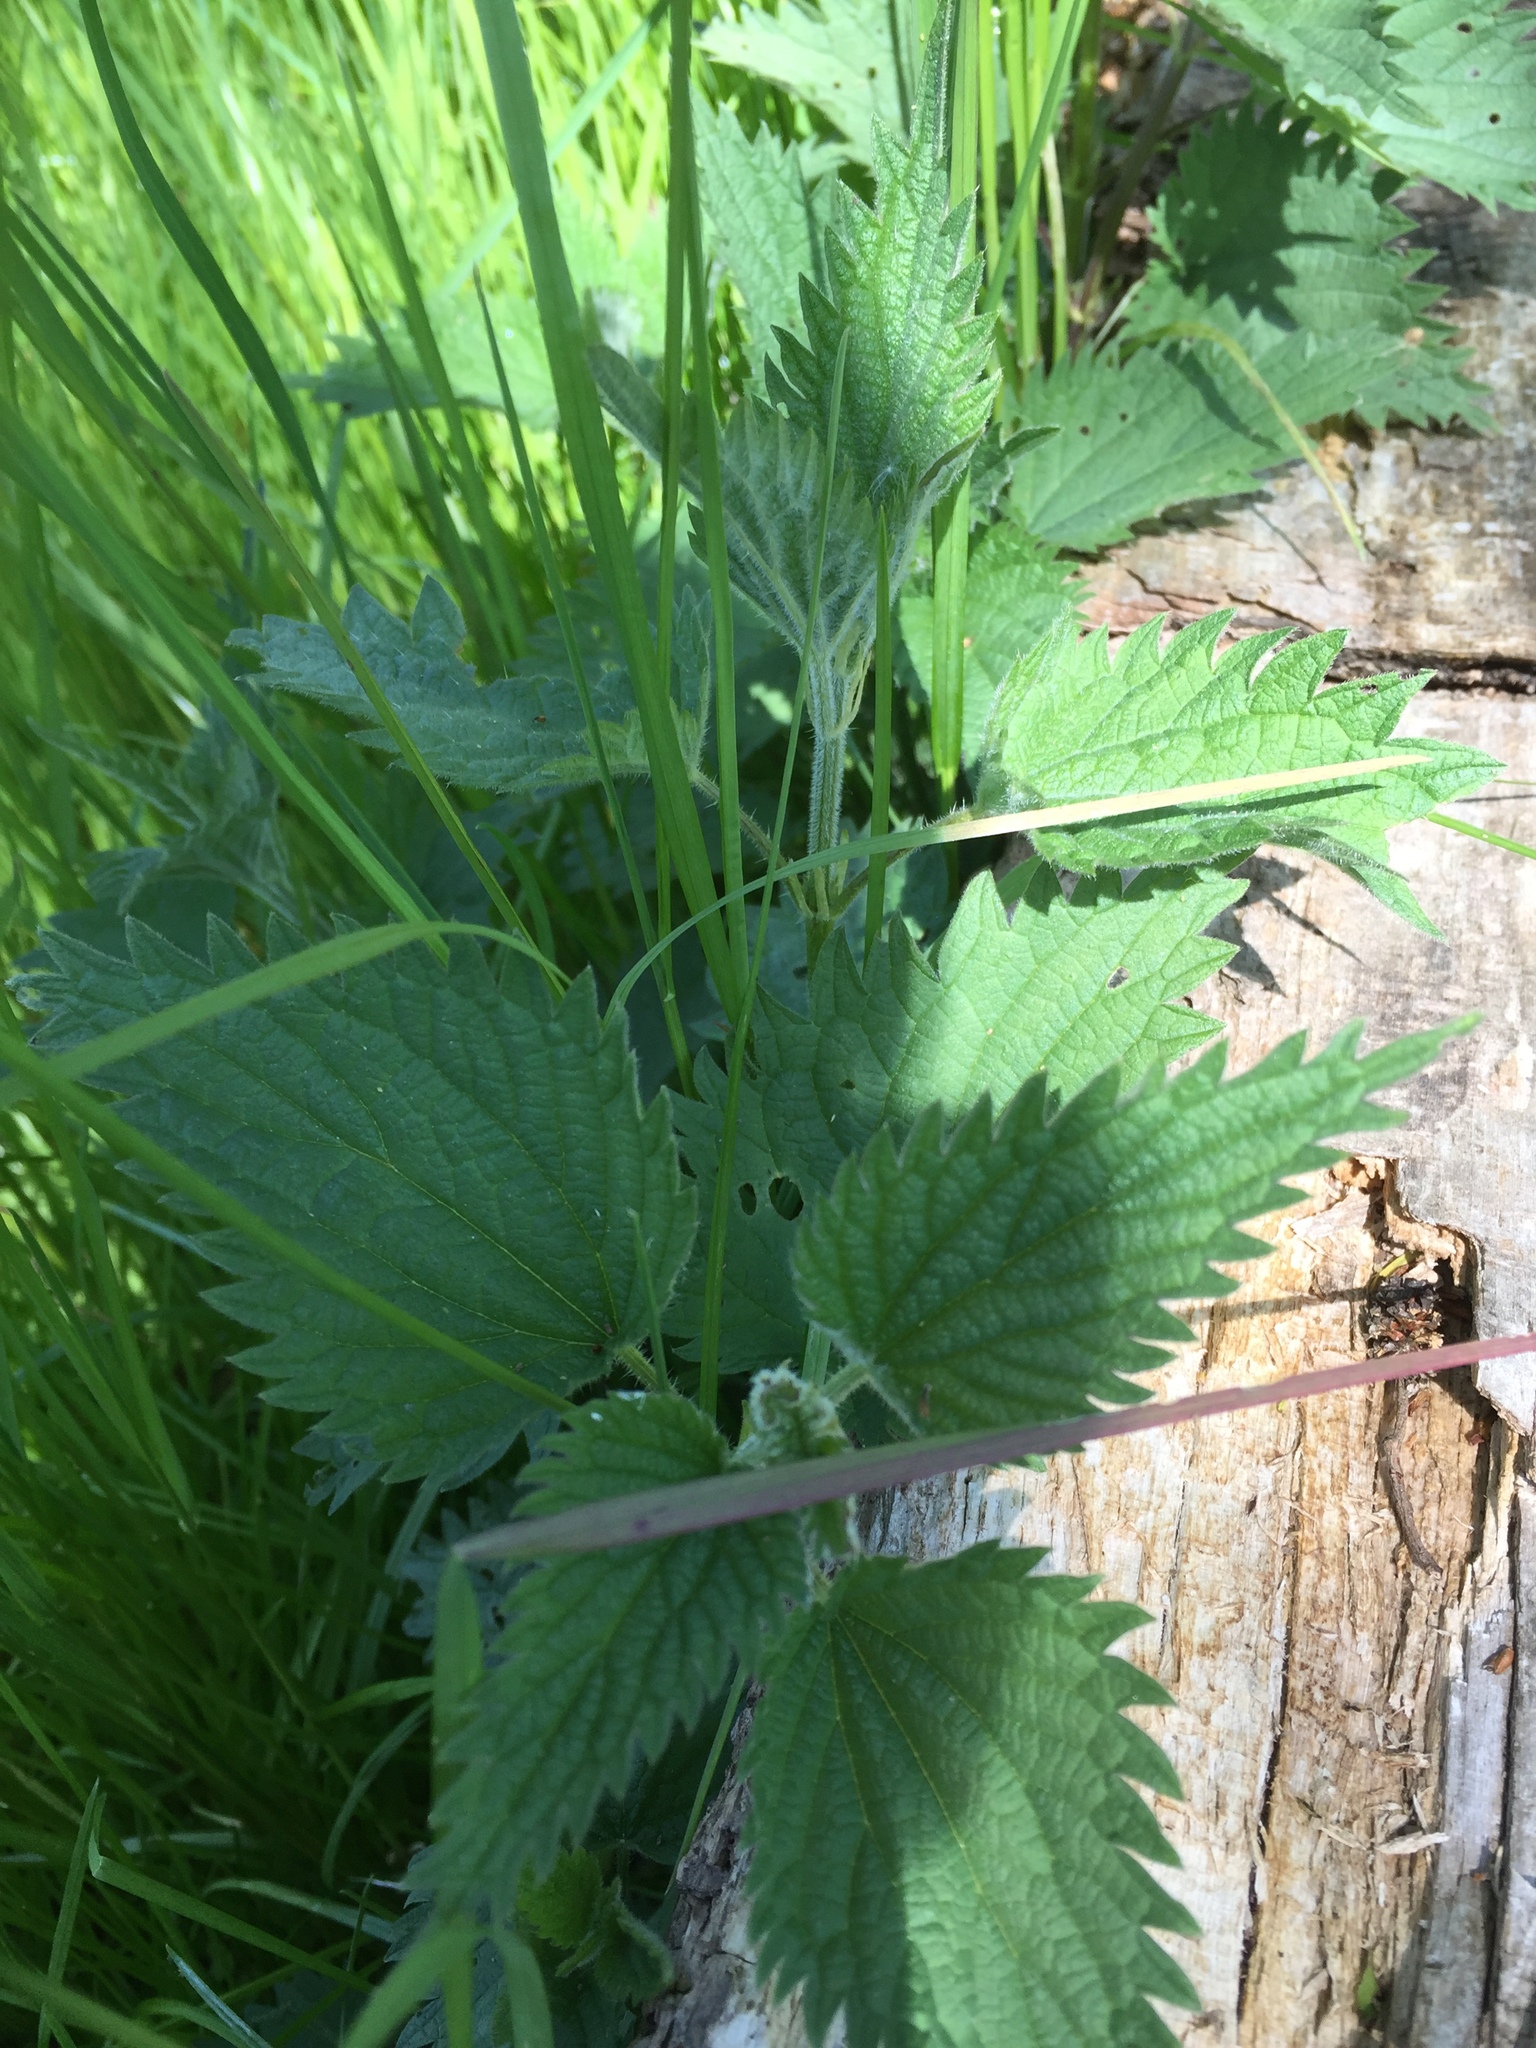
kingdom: Plantae
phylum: Tracheophyta
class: Magnoliopsida
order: Rosales
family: Urticaceae
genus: Urtica
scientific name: Urtica dioica
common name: Common nettle
